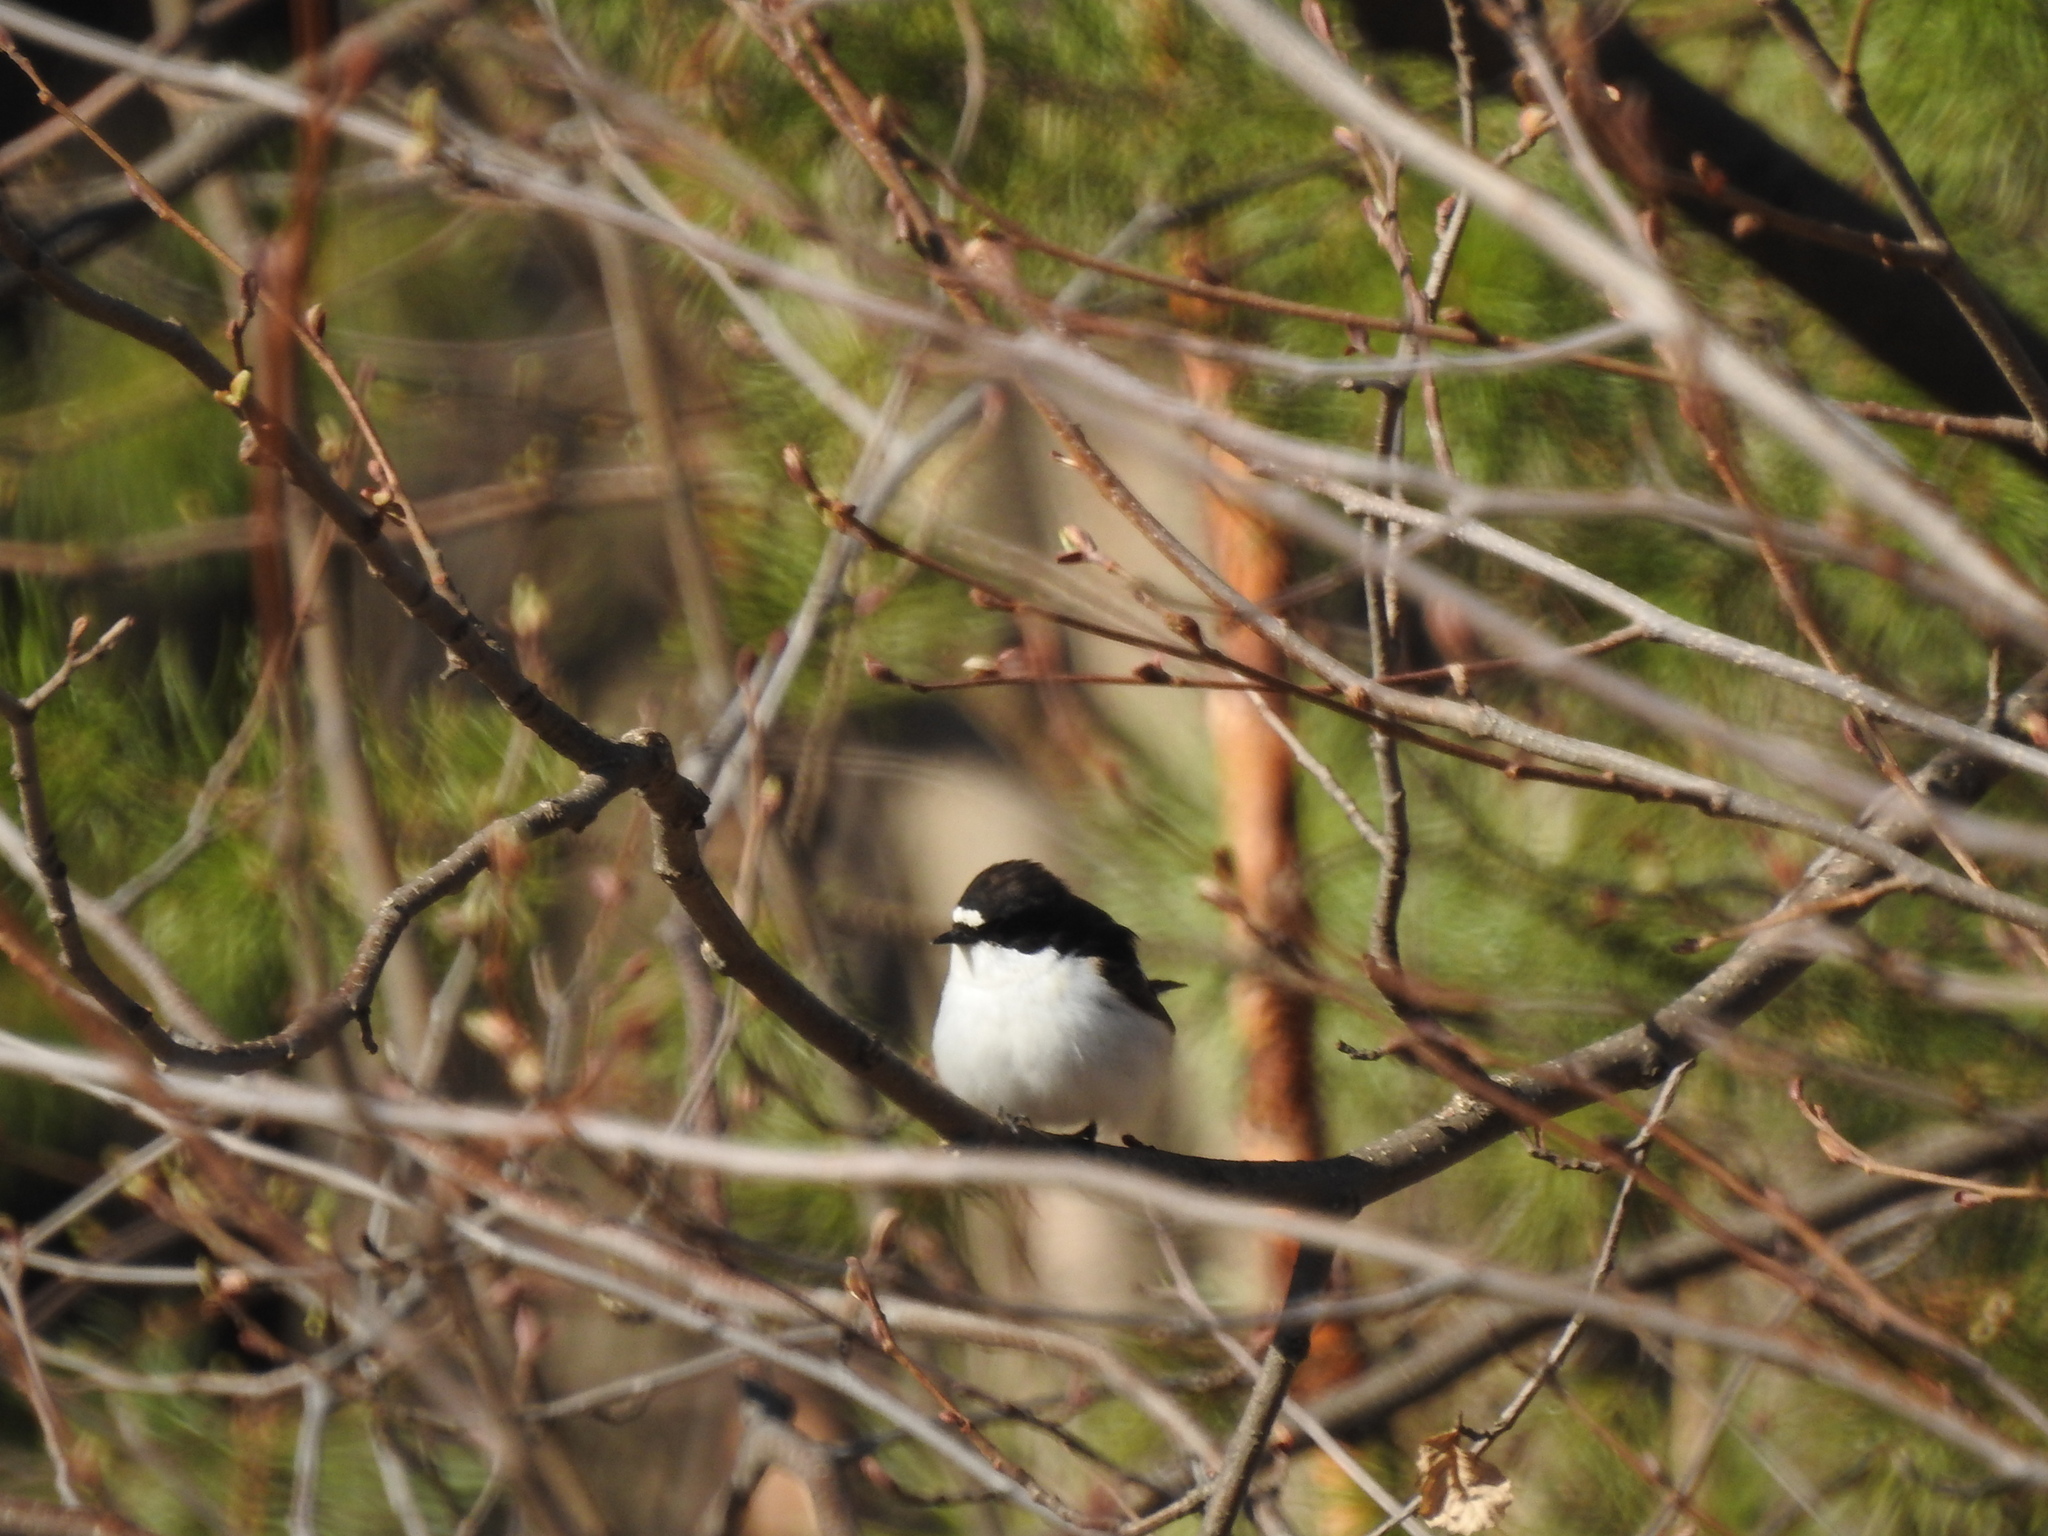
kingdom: Animalia
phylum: Chordata
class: Aves
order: Passeriformes
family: Muscicapidae
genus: Ficedula
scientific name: Ficedula hypoleuca
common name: European pied flycatcher
